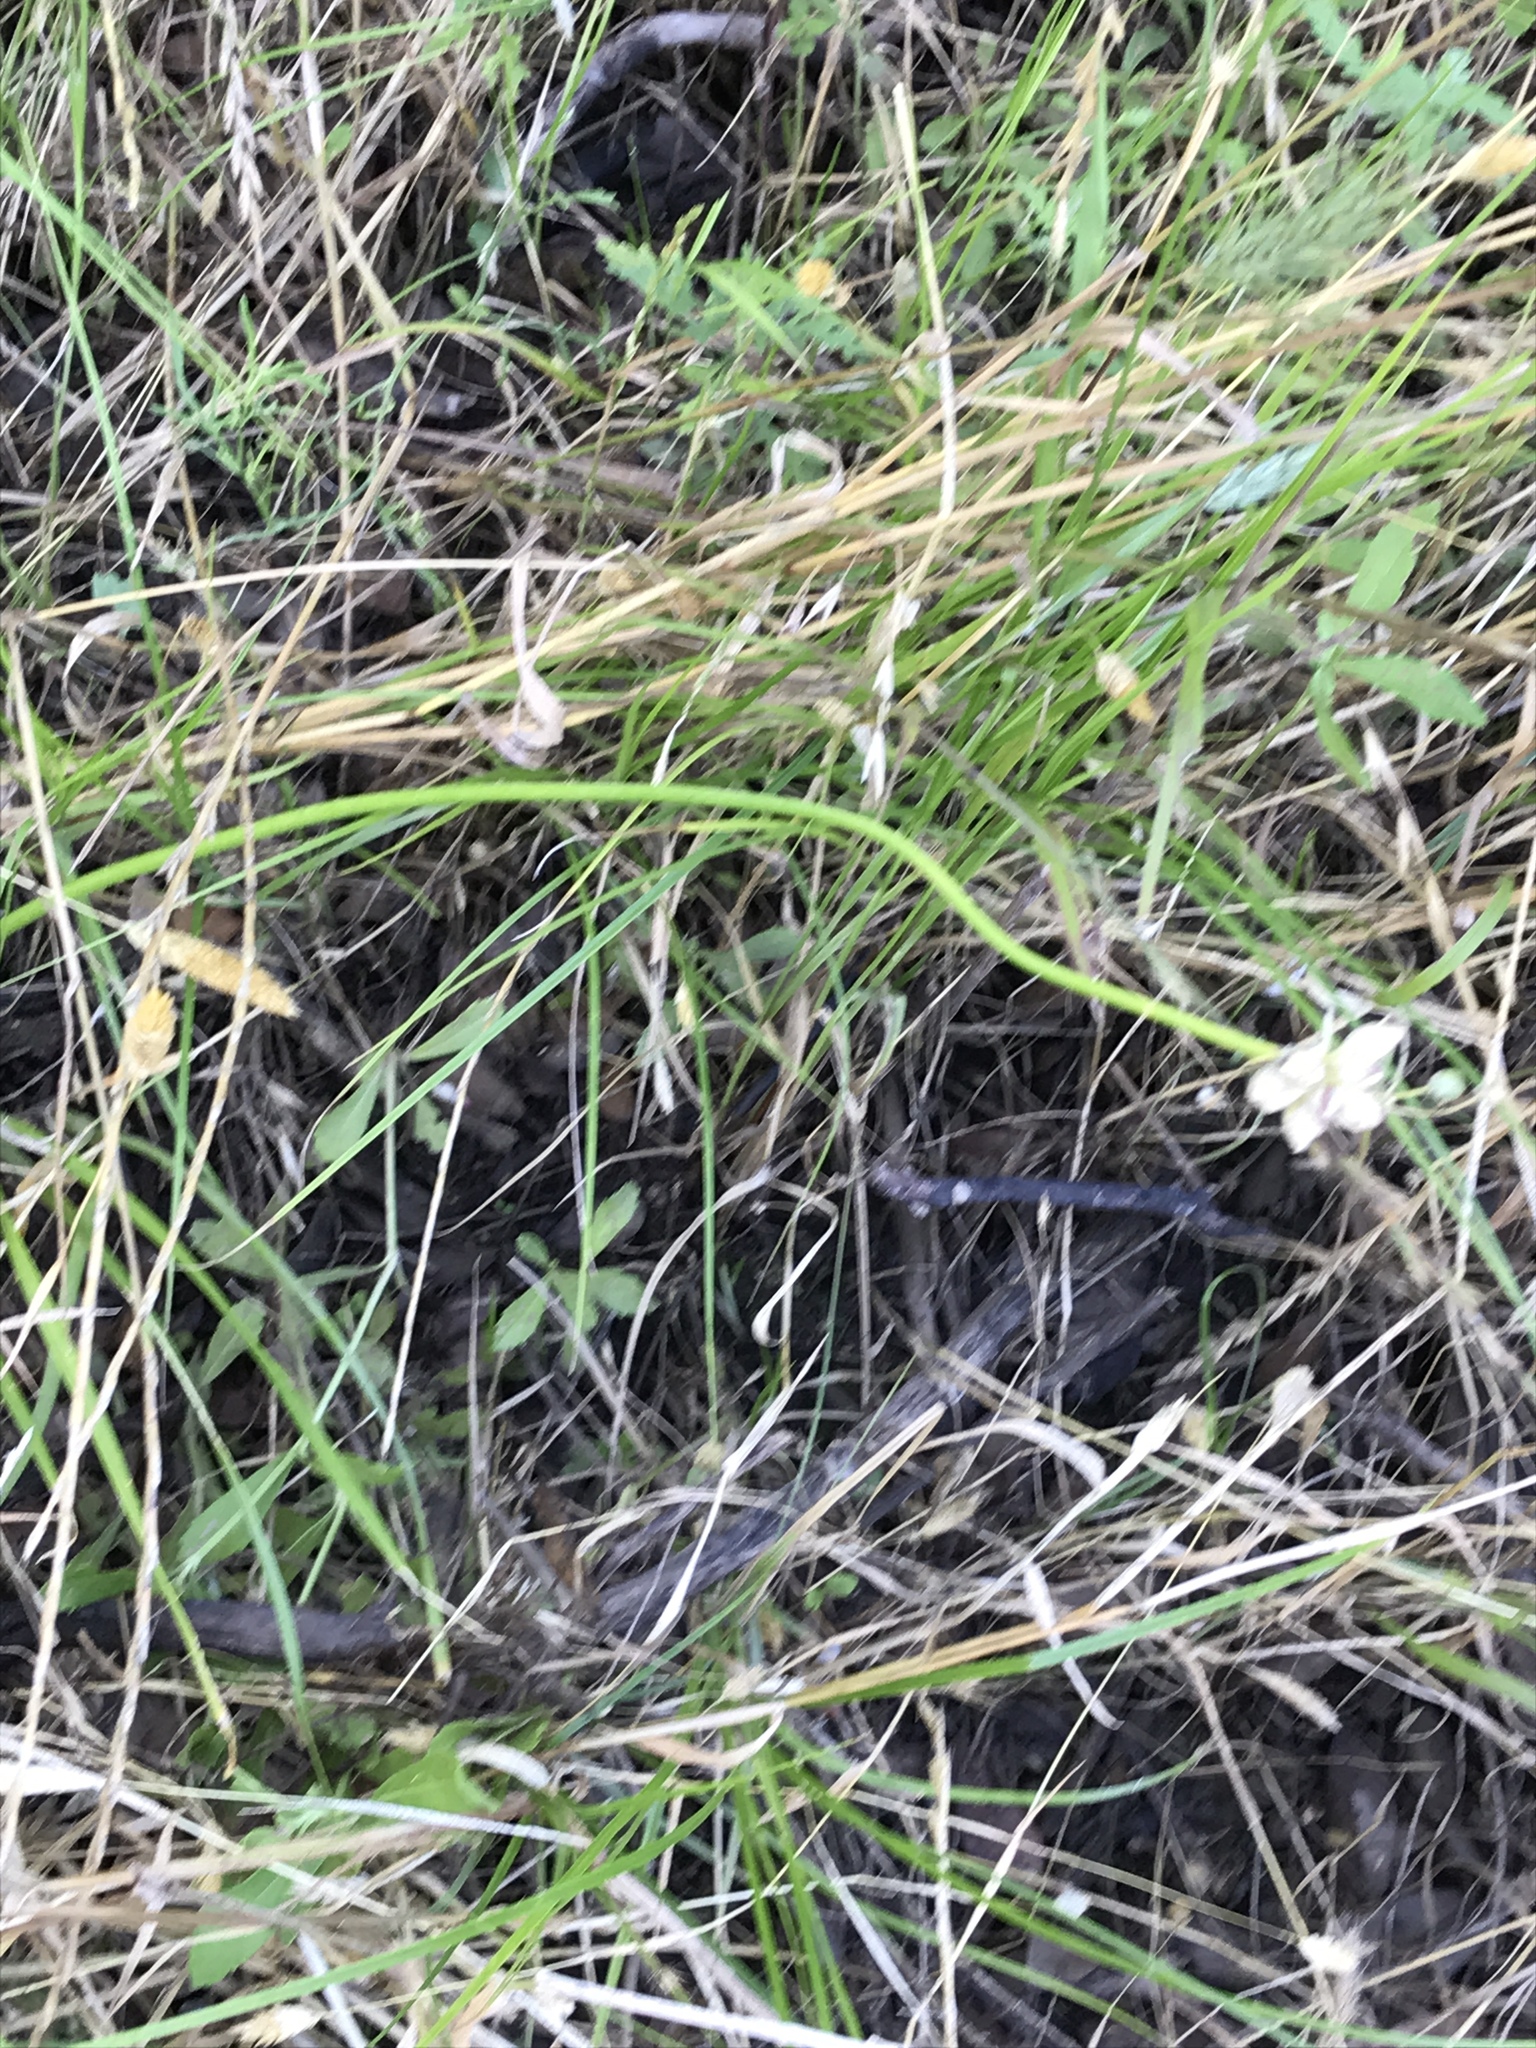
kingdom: Plantae
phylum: Tracheophyta
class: Liliopsida
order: Asparagales
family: Amaryllidaceae
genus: Allium
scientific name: Allium canadense
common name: Meadow garlic
